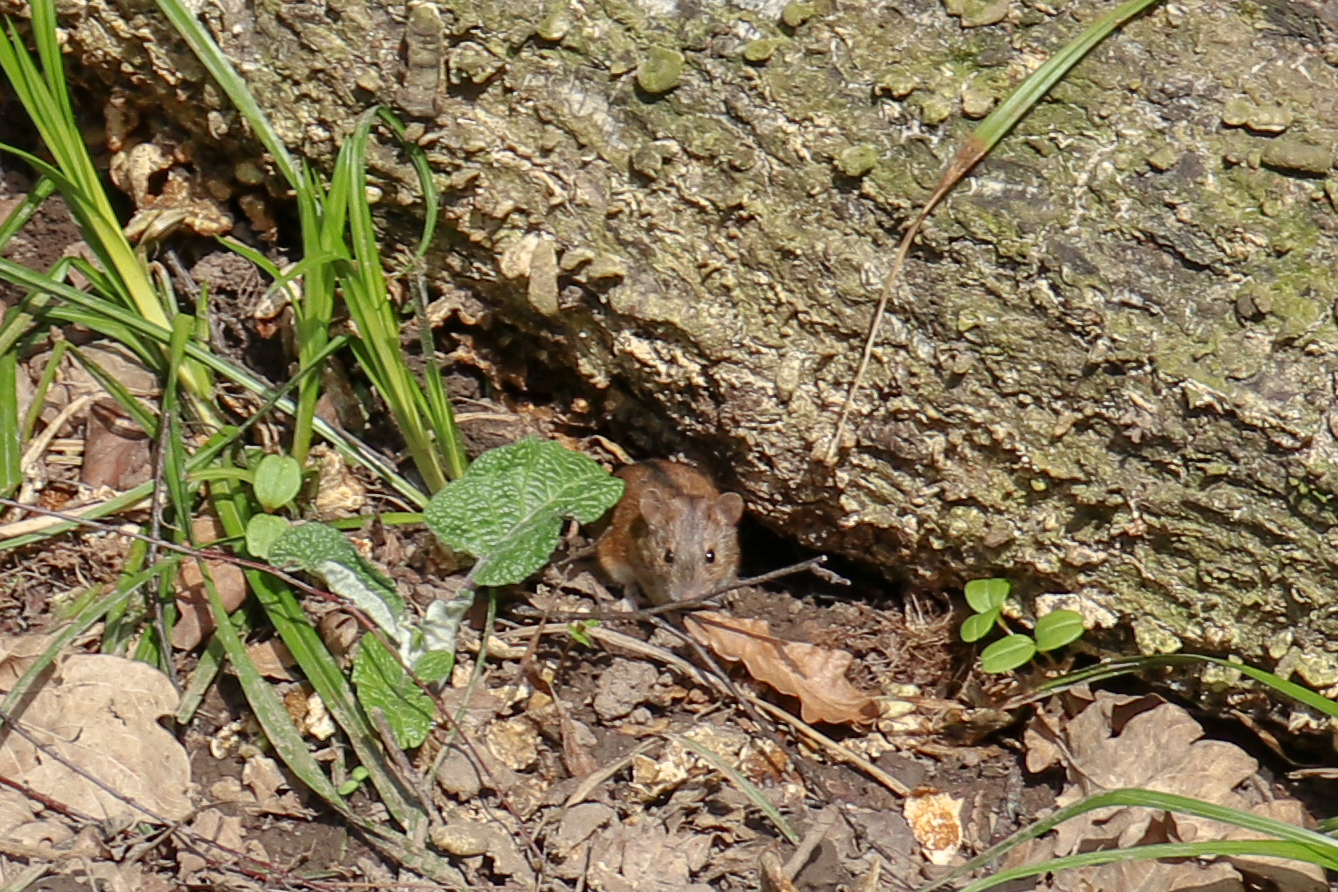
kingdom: Animalia
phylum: Chordata
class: Mammalia
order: Rodentia
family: Muridae
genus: Apodemus
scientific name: Apodemus agrarius
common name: Striped field mouse
